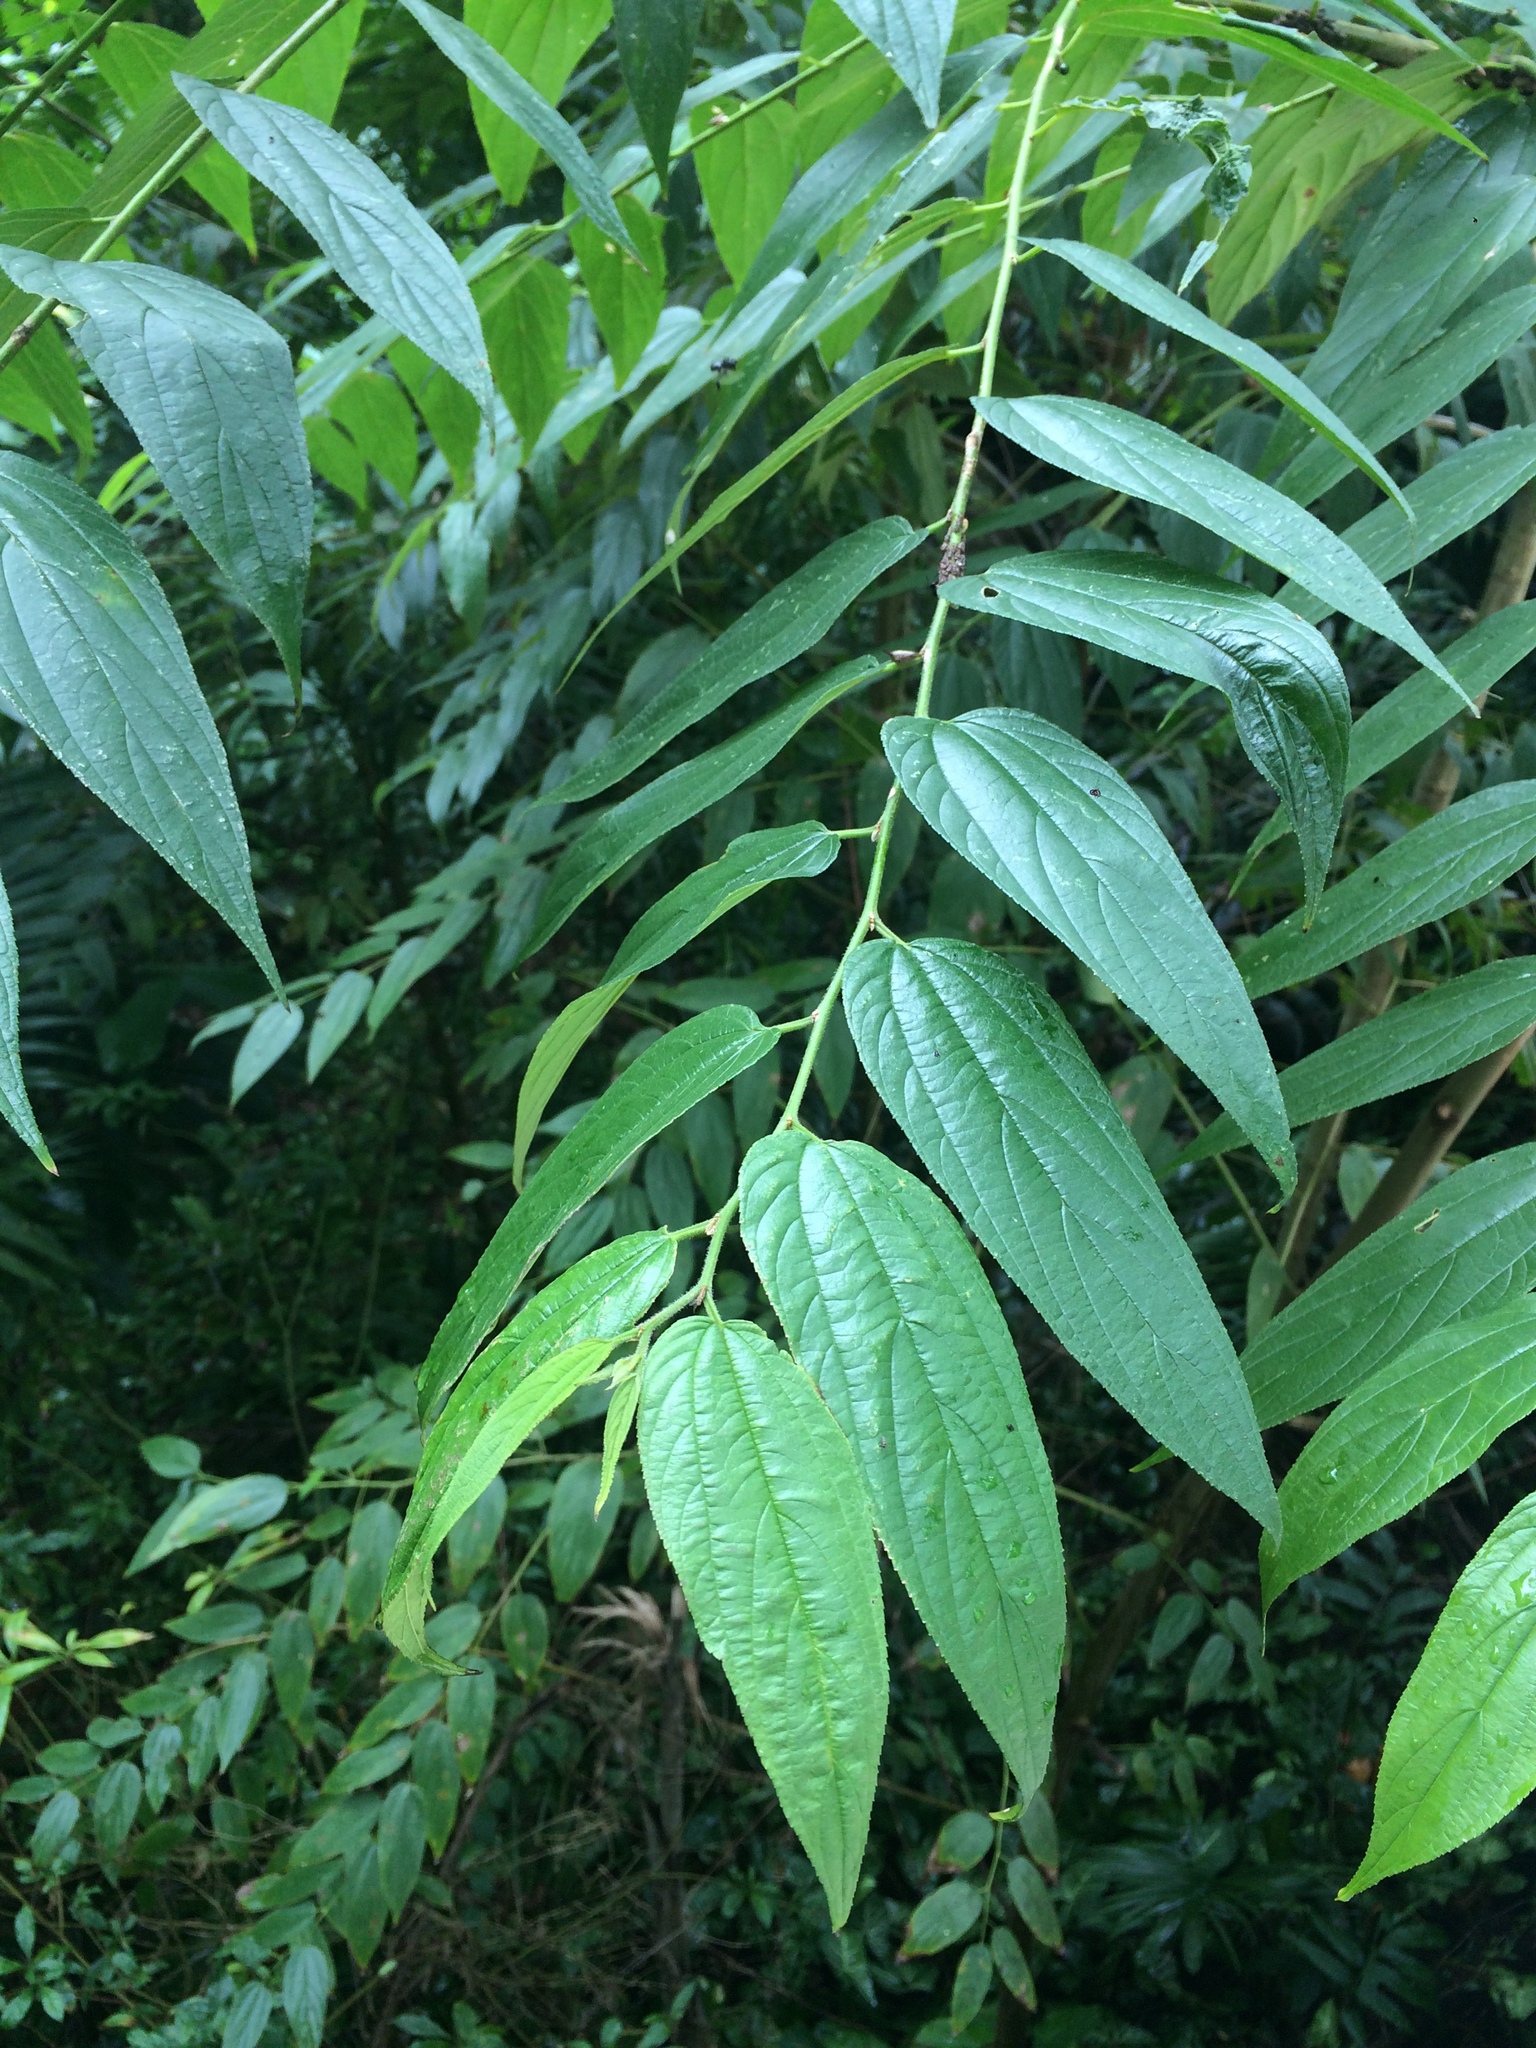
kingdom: Plantae
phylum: Tracheophyta
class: Magnoliopsida
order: Rosales
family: Cannabaceae
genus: Trema
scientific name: Trema micranthum
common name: Jamaican nettletree
